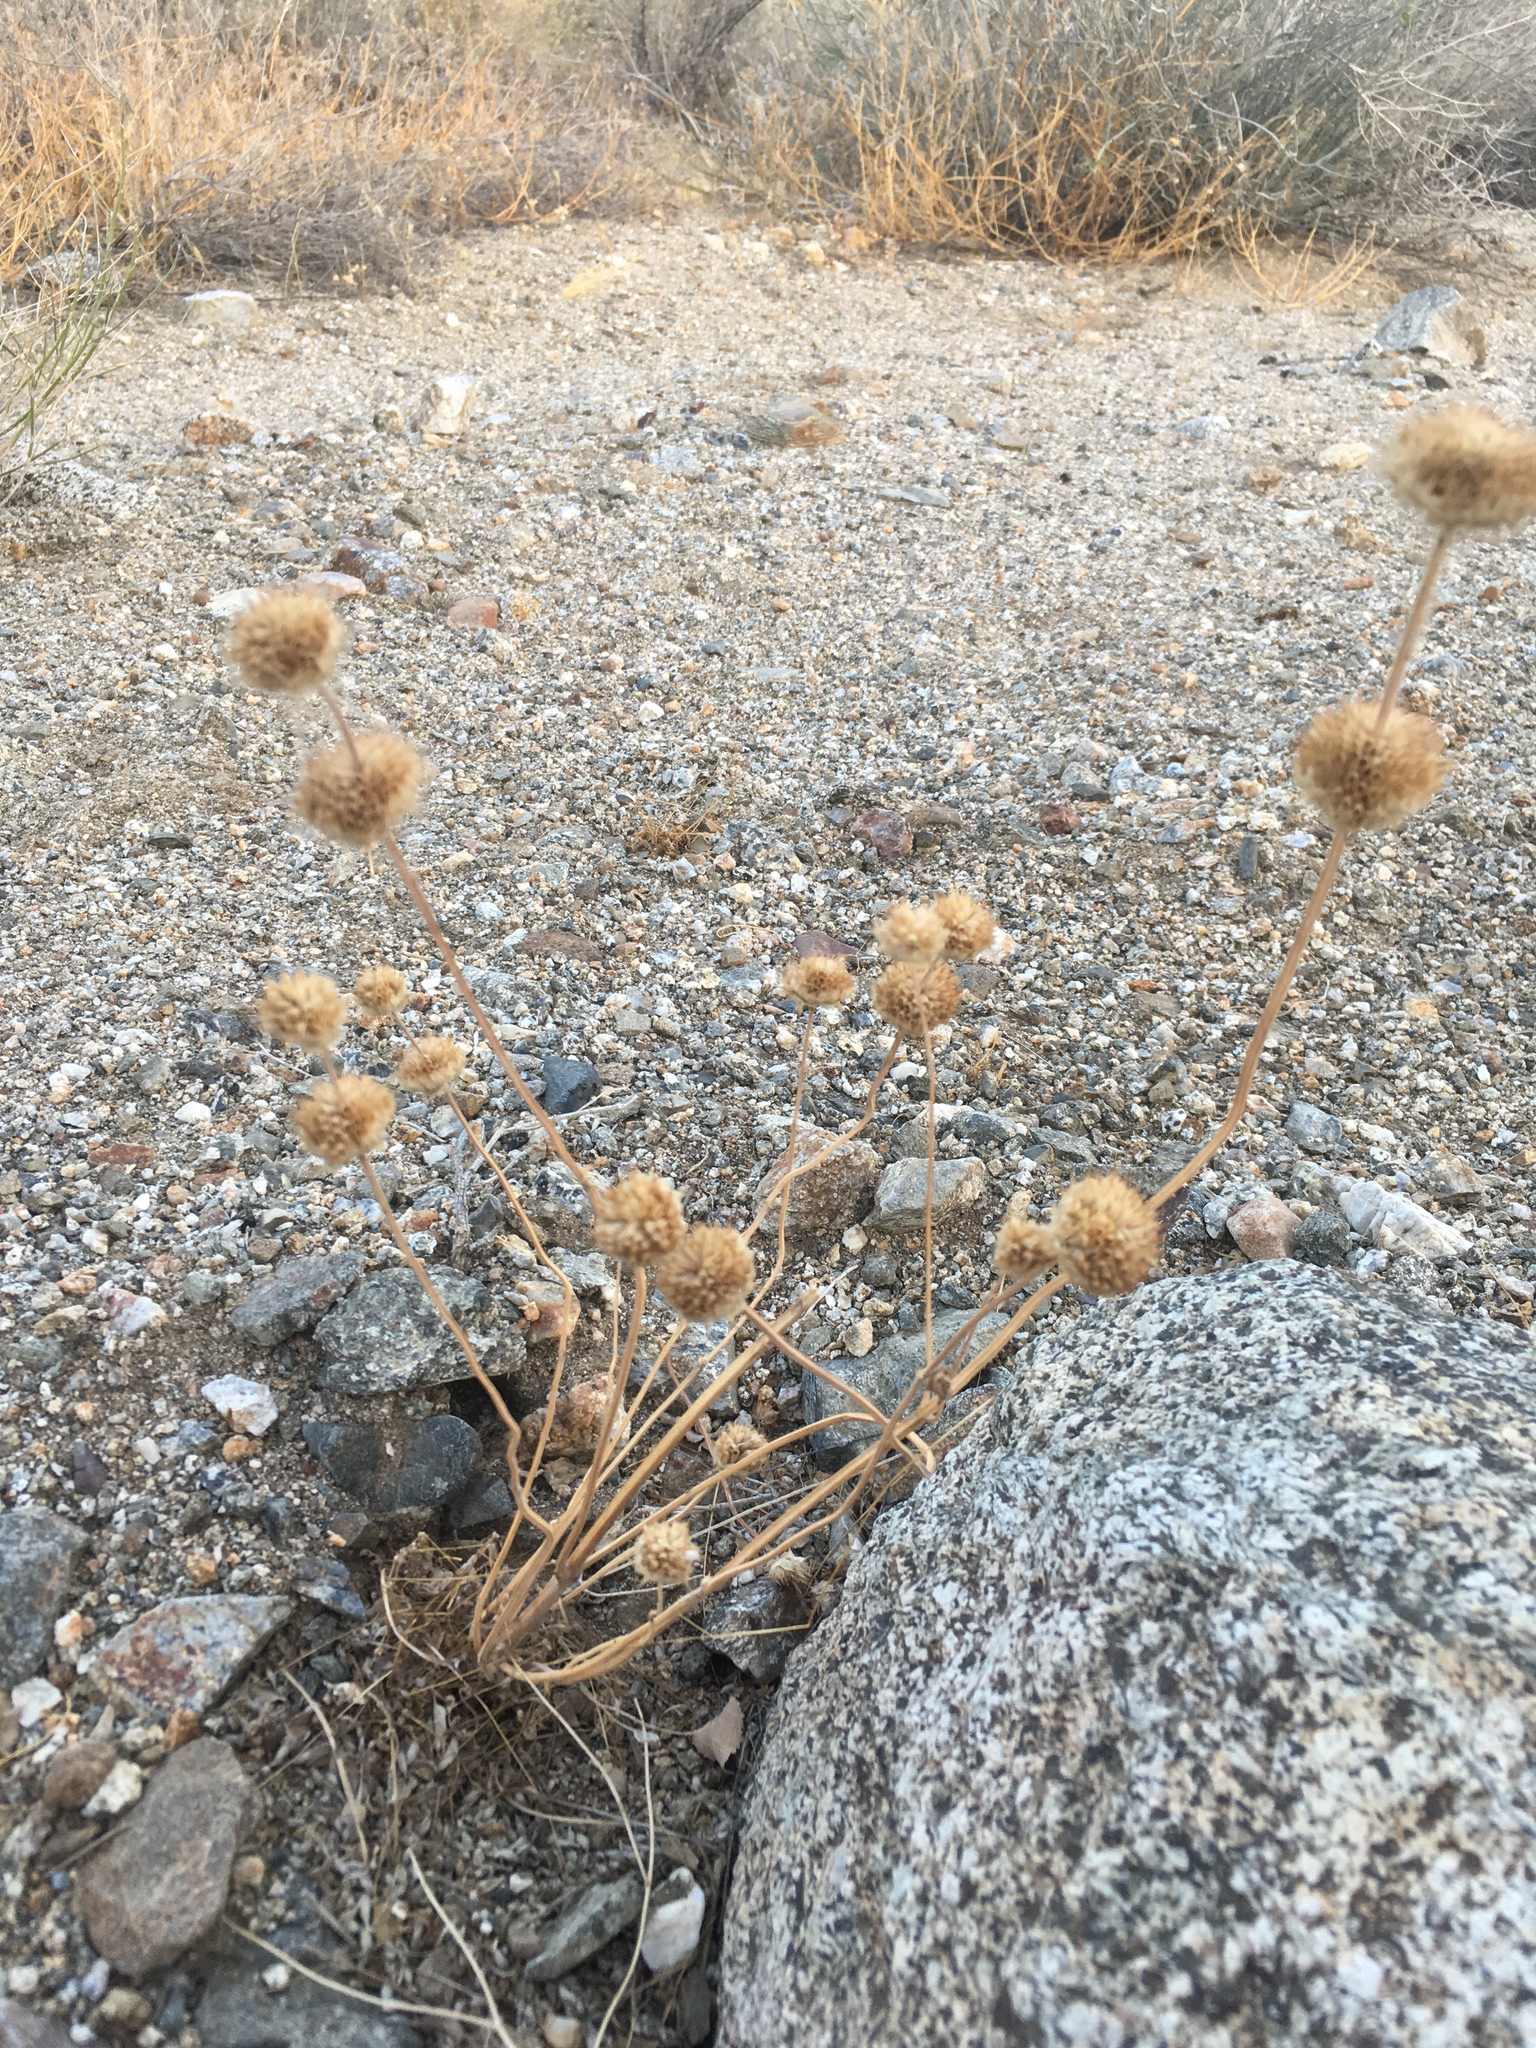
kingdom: Plantae
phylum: Tracheophyta
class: Magnoliopsida
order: Lamiales
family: Lamiaceae
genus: Salvia
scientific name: Salvia columbariae
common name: Chia
